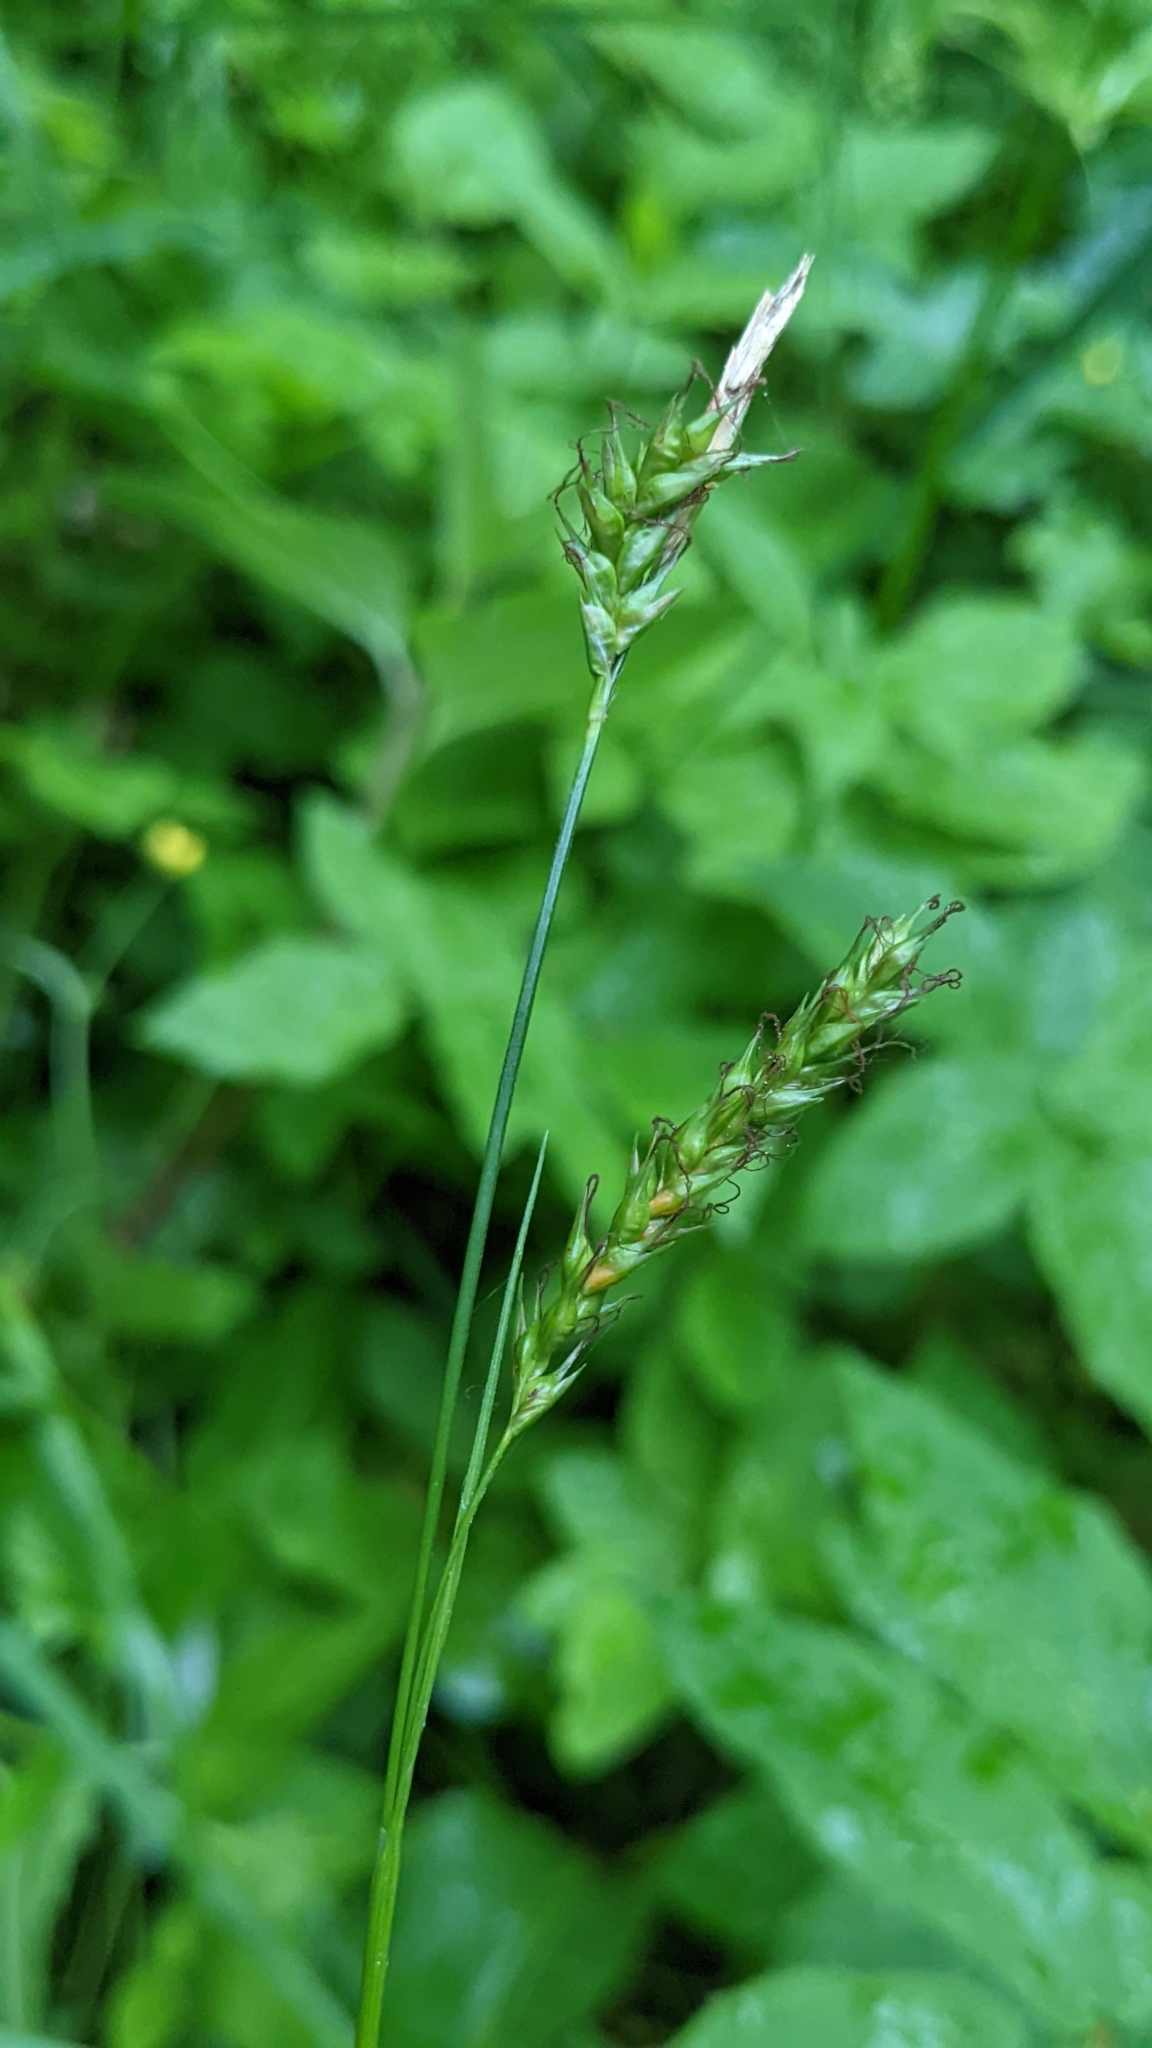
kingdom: Plantae
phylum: Tracheophyta
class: Liliopsida
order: Poales
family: Cyperaceae
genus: Carex
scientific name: Carex sylvatica
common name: Wood-sedge
